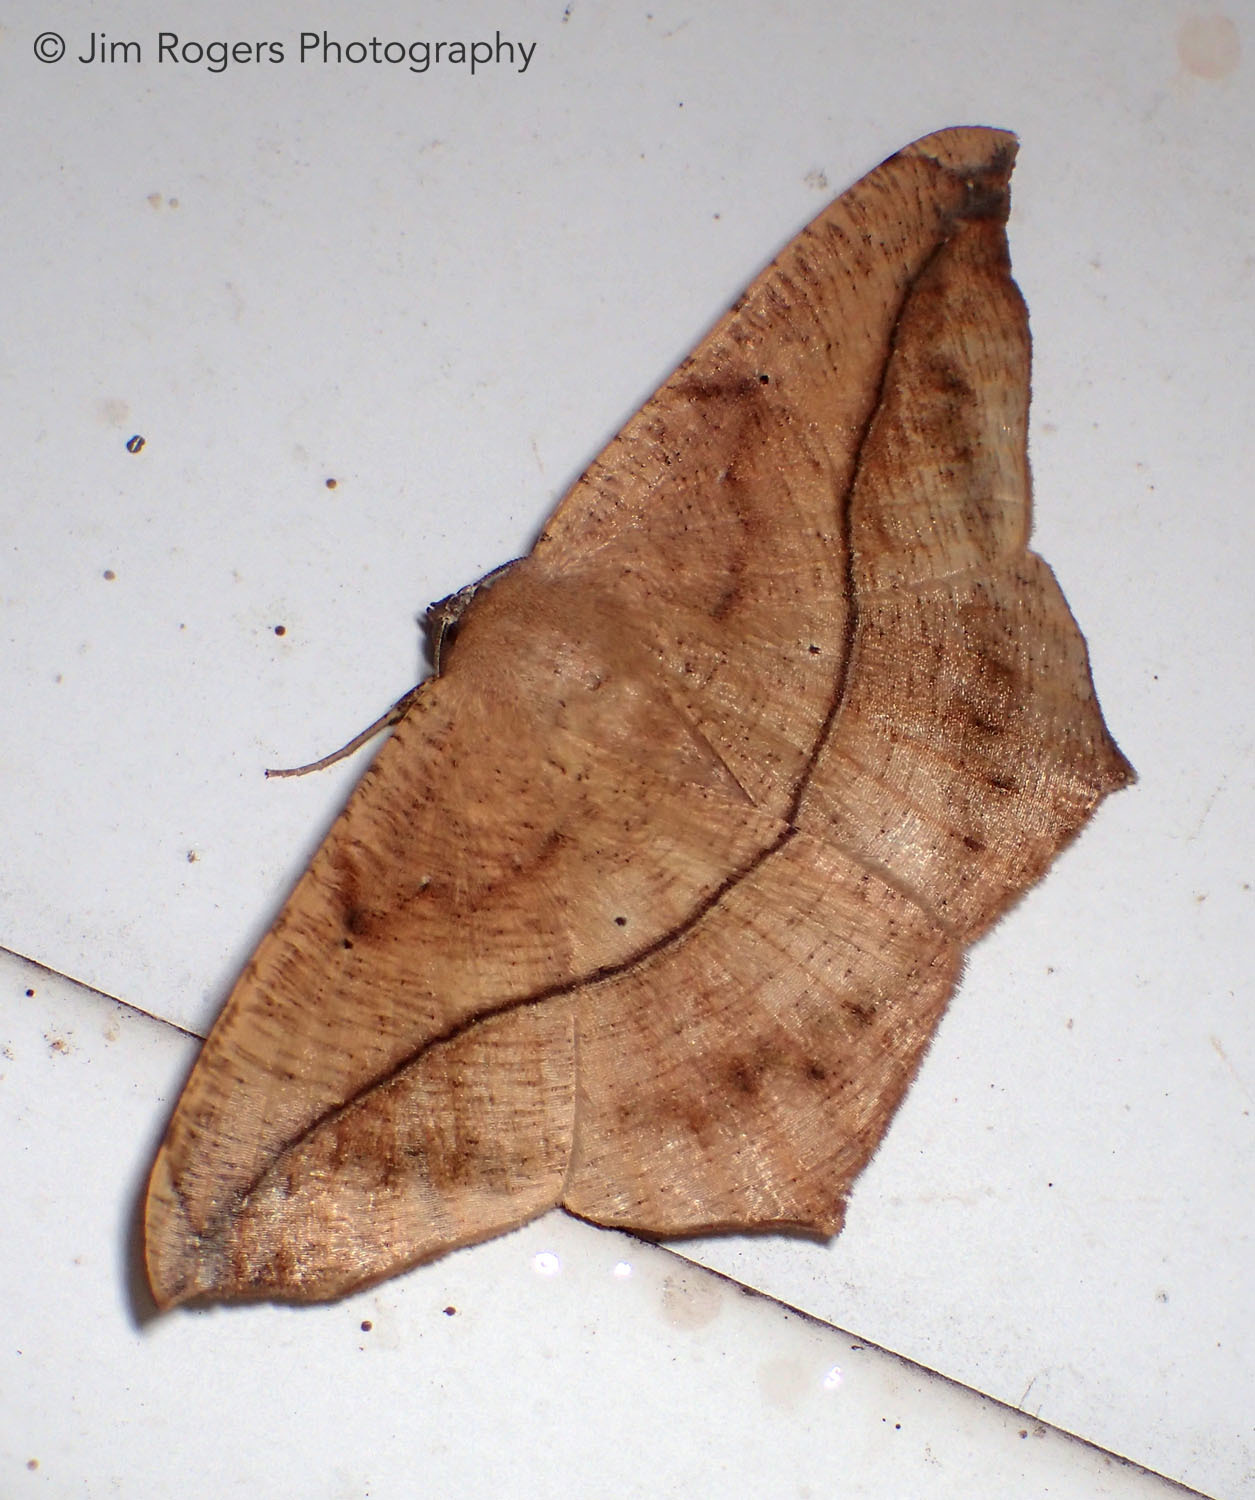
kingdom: Animalia
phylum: Arthropoda
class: Insecta
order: Lepidoptera
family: Geometridae
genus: Prochoerodes
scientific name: Prochoerodes lineola
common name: Large maple spanworm
